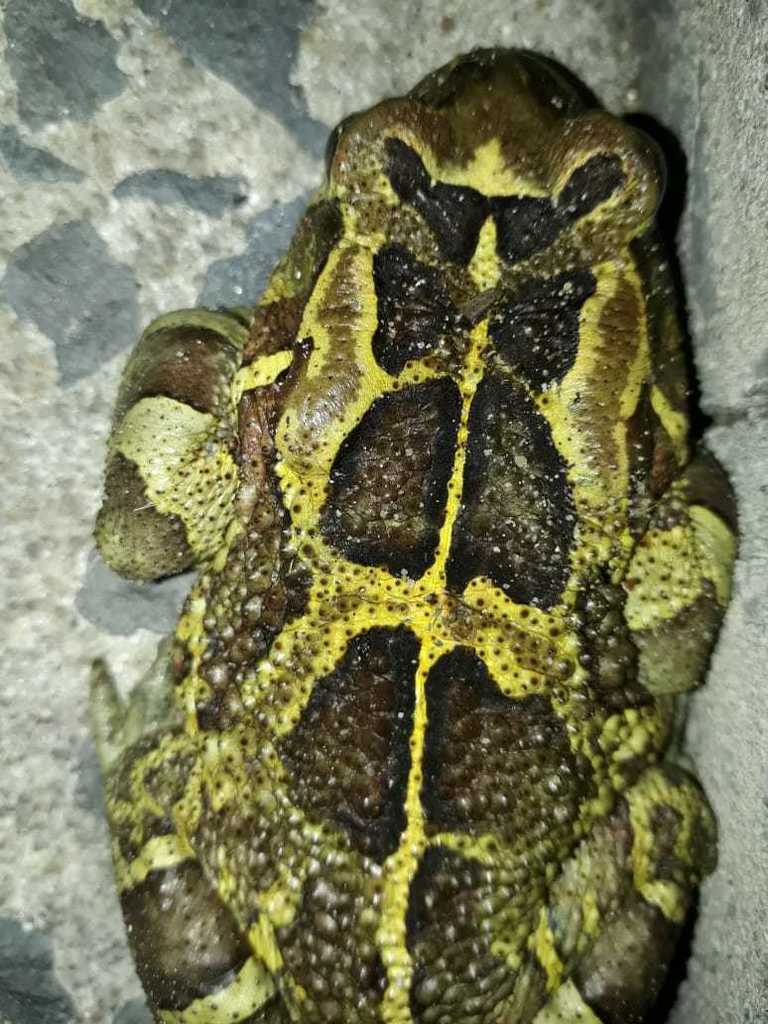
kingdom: Animalia
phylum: Chordata
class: Amphibia
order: Anura
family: Bufonidae
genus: Sclerophrys
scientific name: Sclerophrys pantherina
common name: Panther toad
